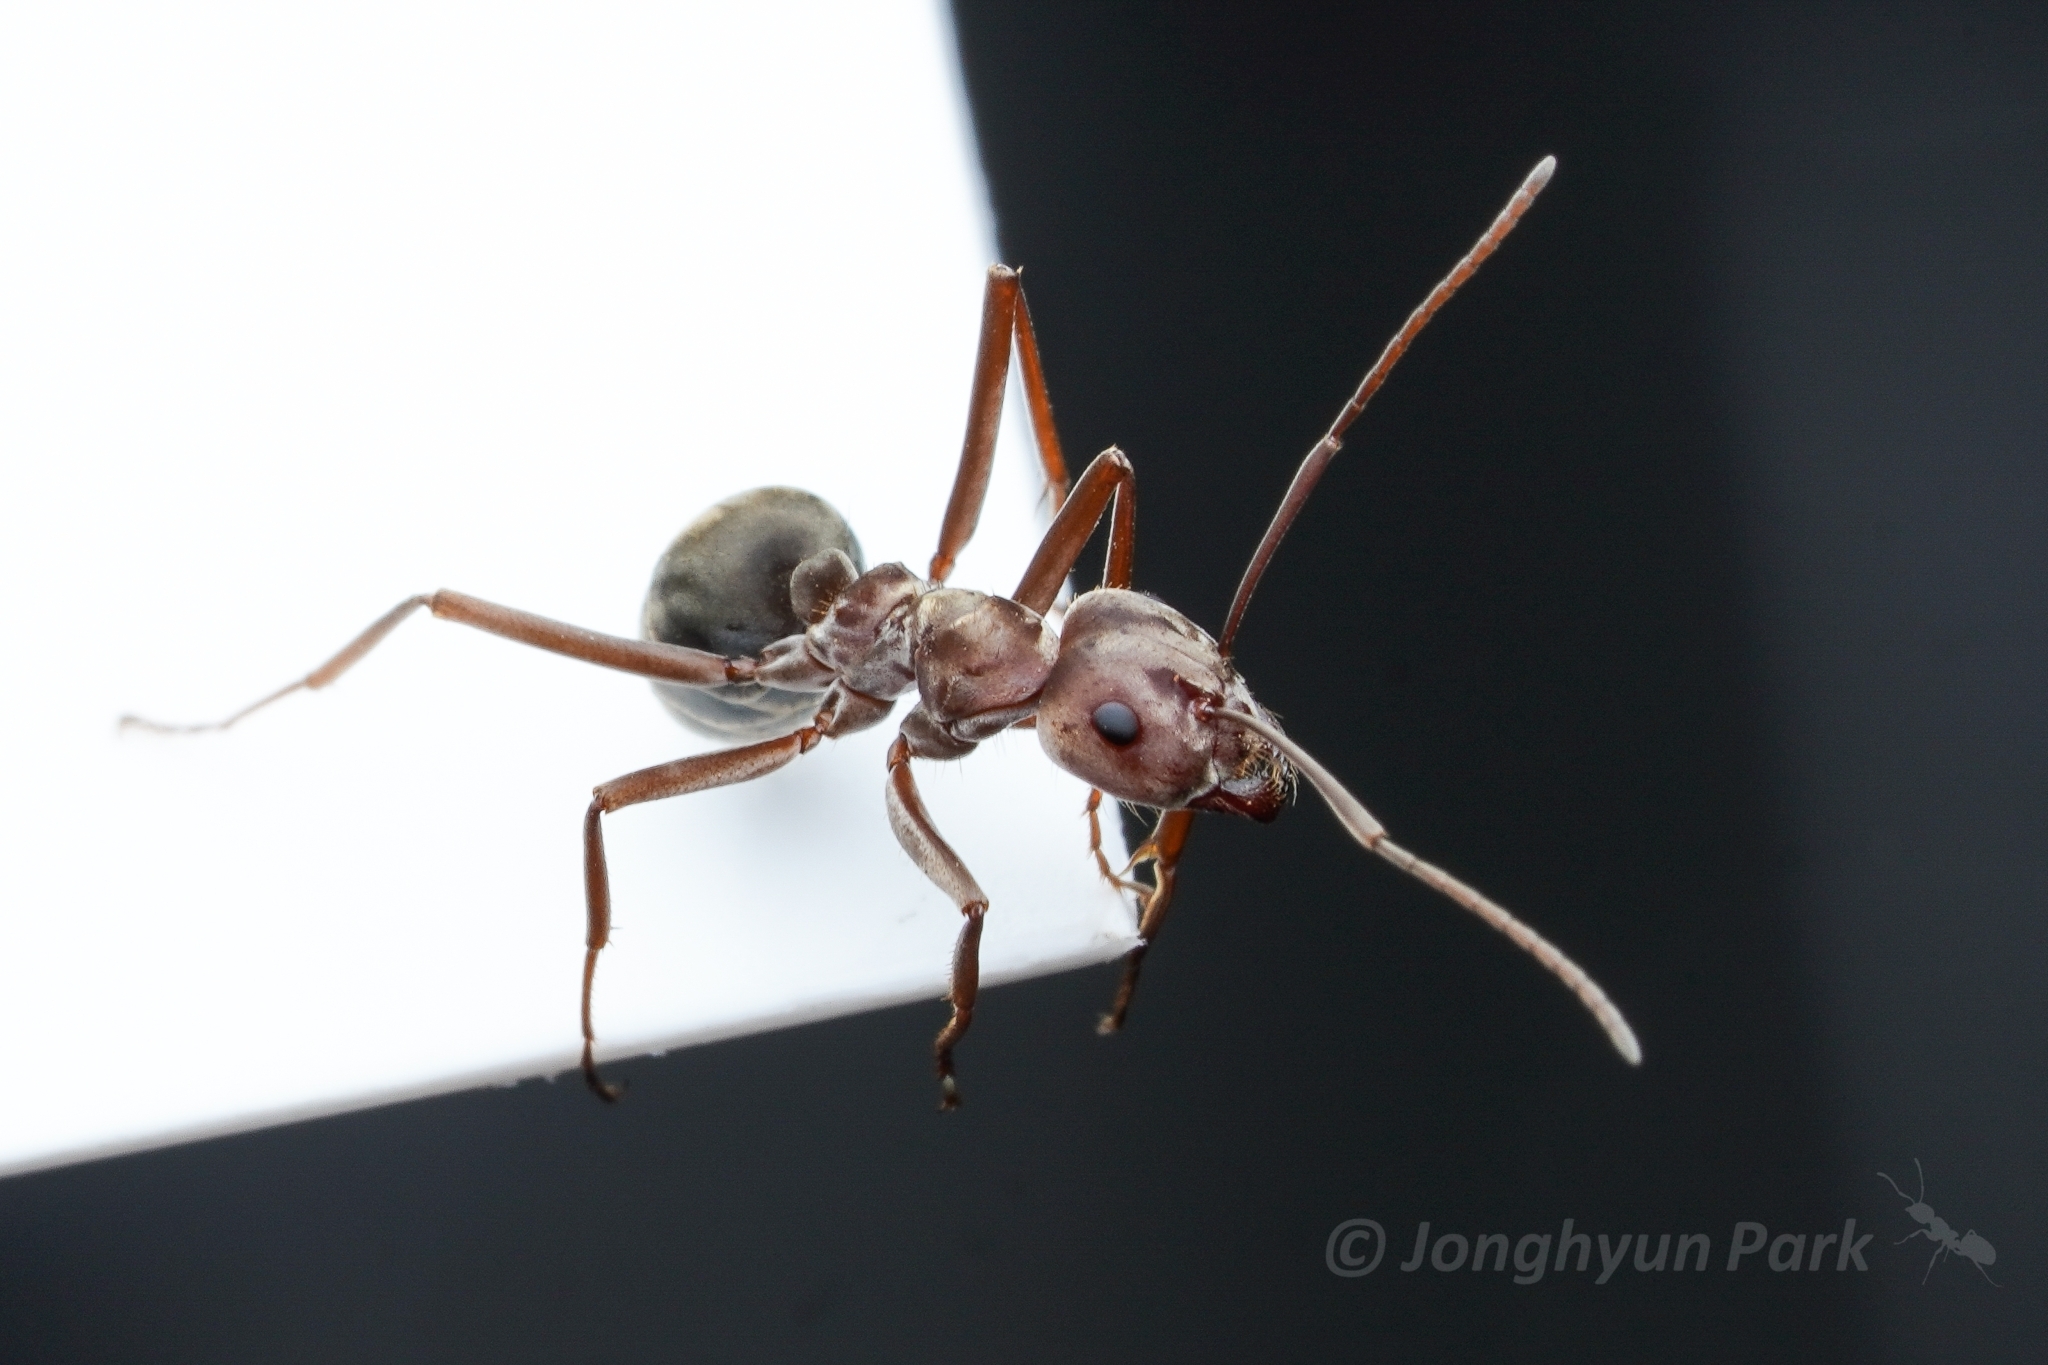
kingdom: Animalia
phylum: Arthropoda
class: Insecta
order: Hymenoptera
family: Formicidae
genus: Anoplolepis
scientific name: Anoplolepis custodiens
